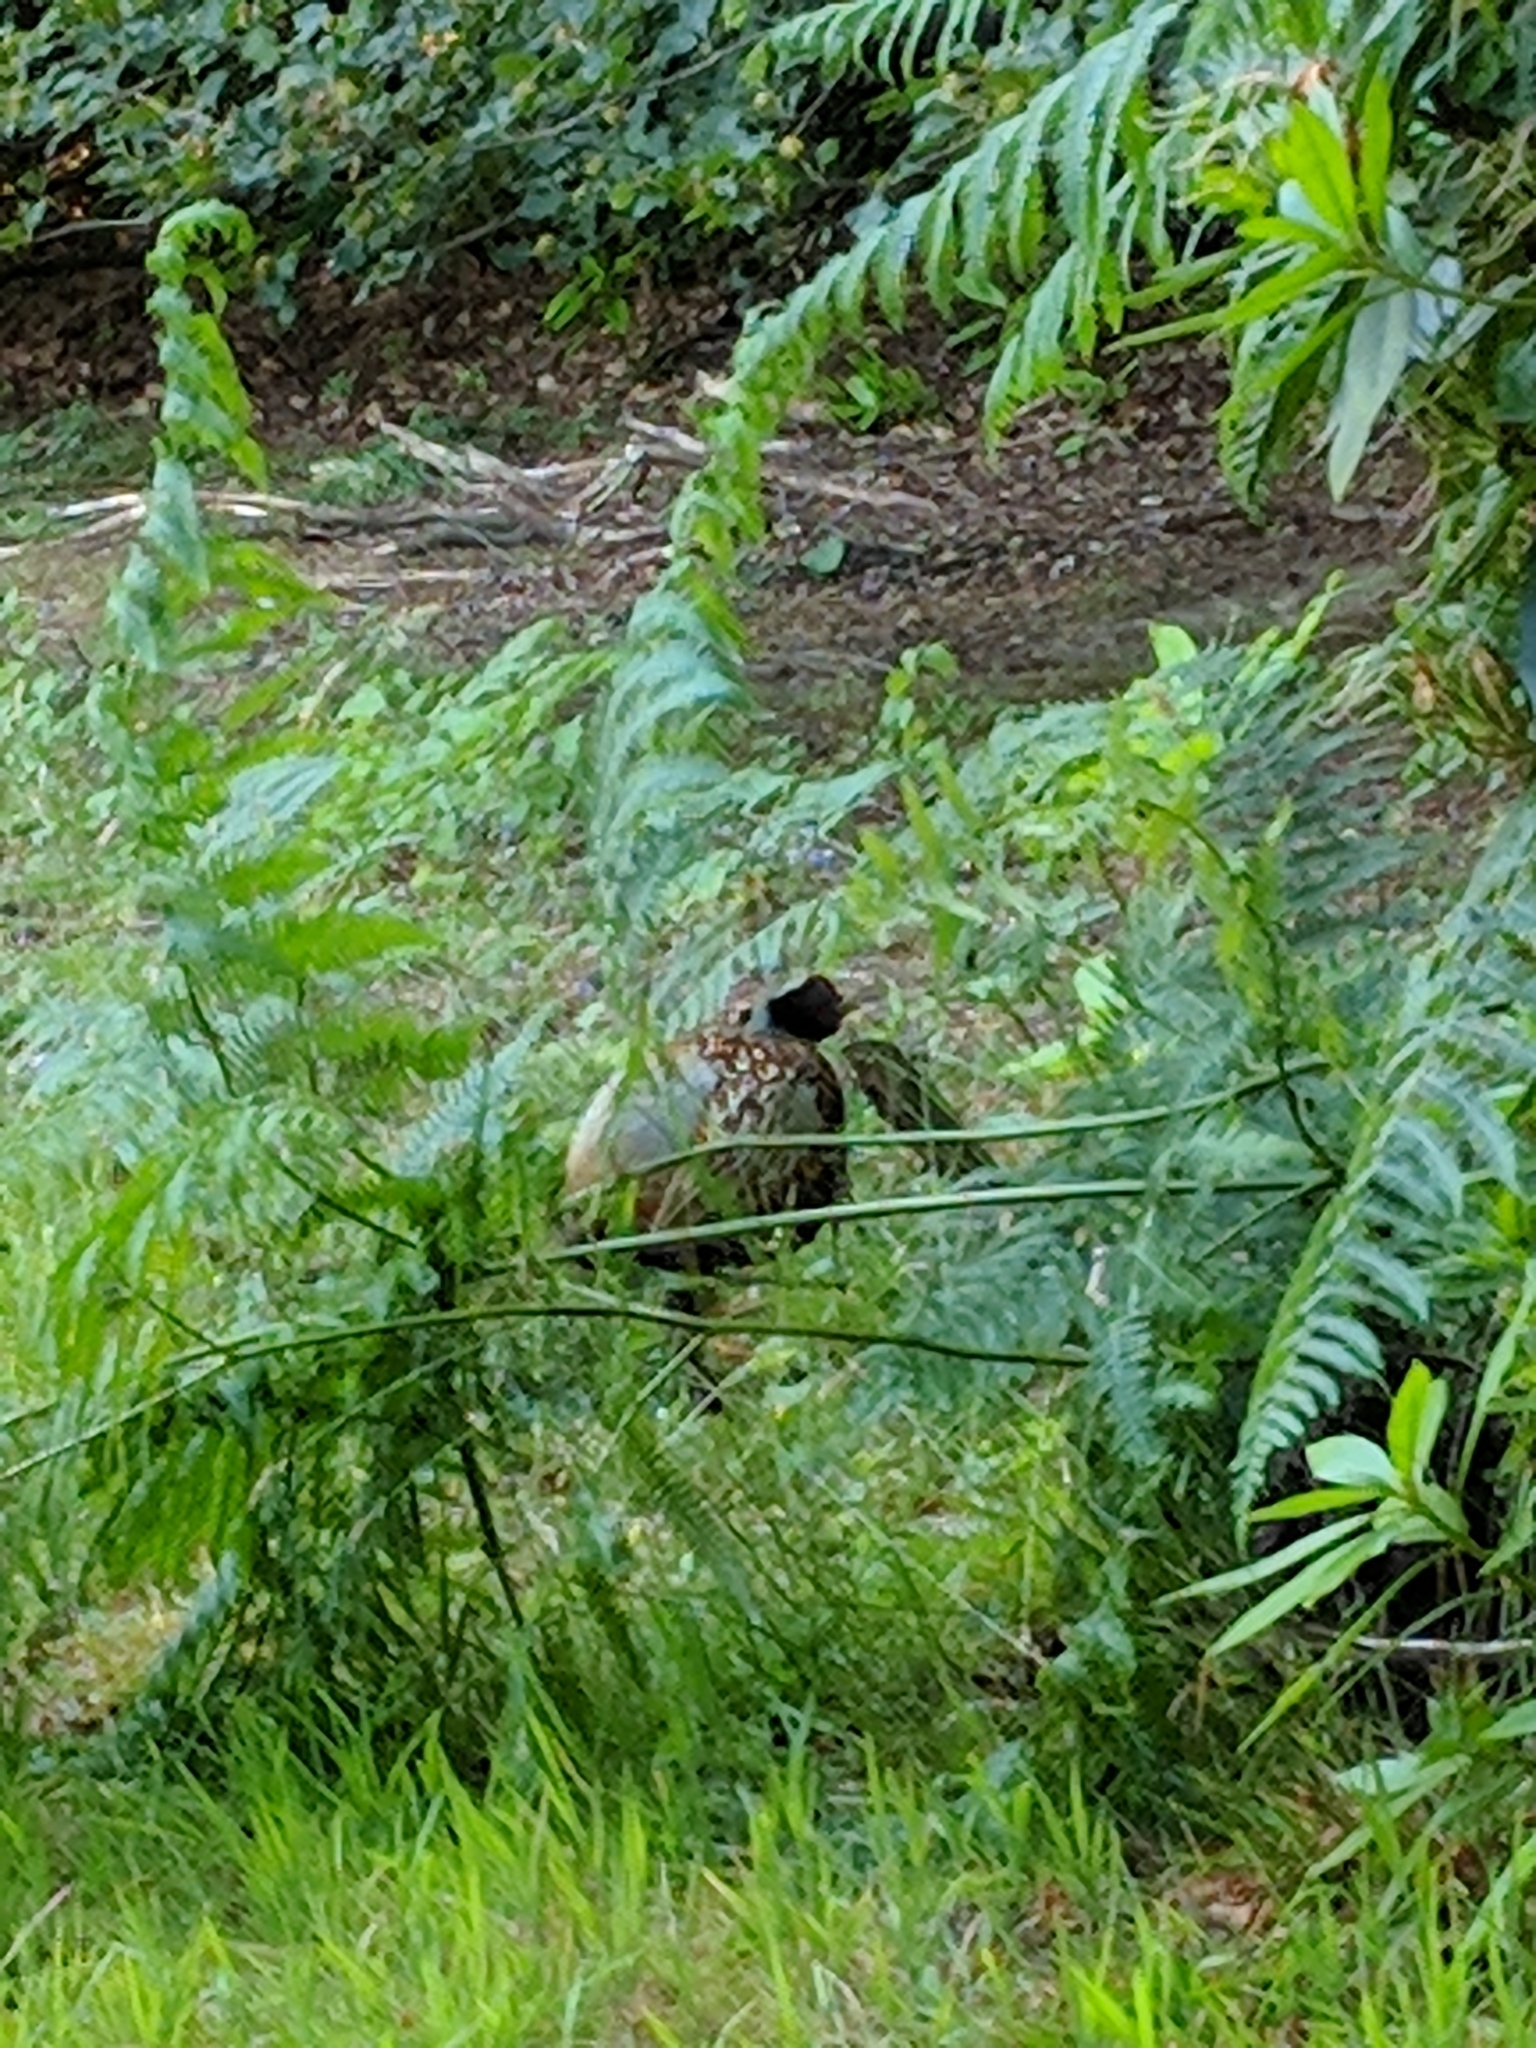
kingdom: Animalia
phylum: Chordata
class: Aves
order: Galliformes
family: Phasianidae
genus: Phasianus
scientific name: Phasianus colchicus
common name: Common pheasant
